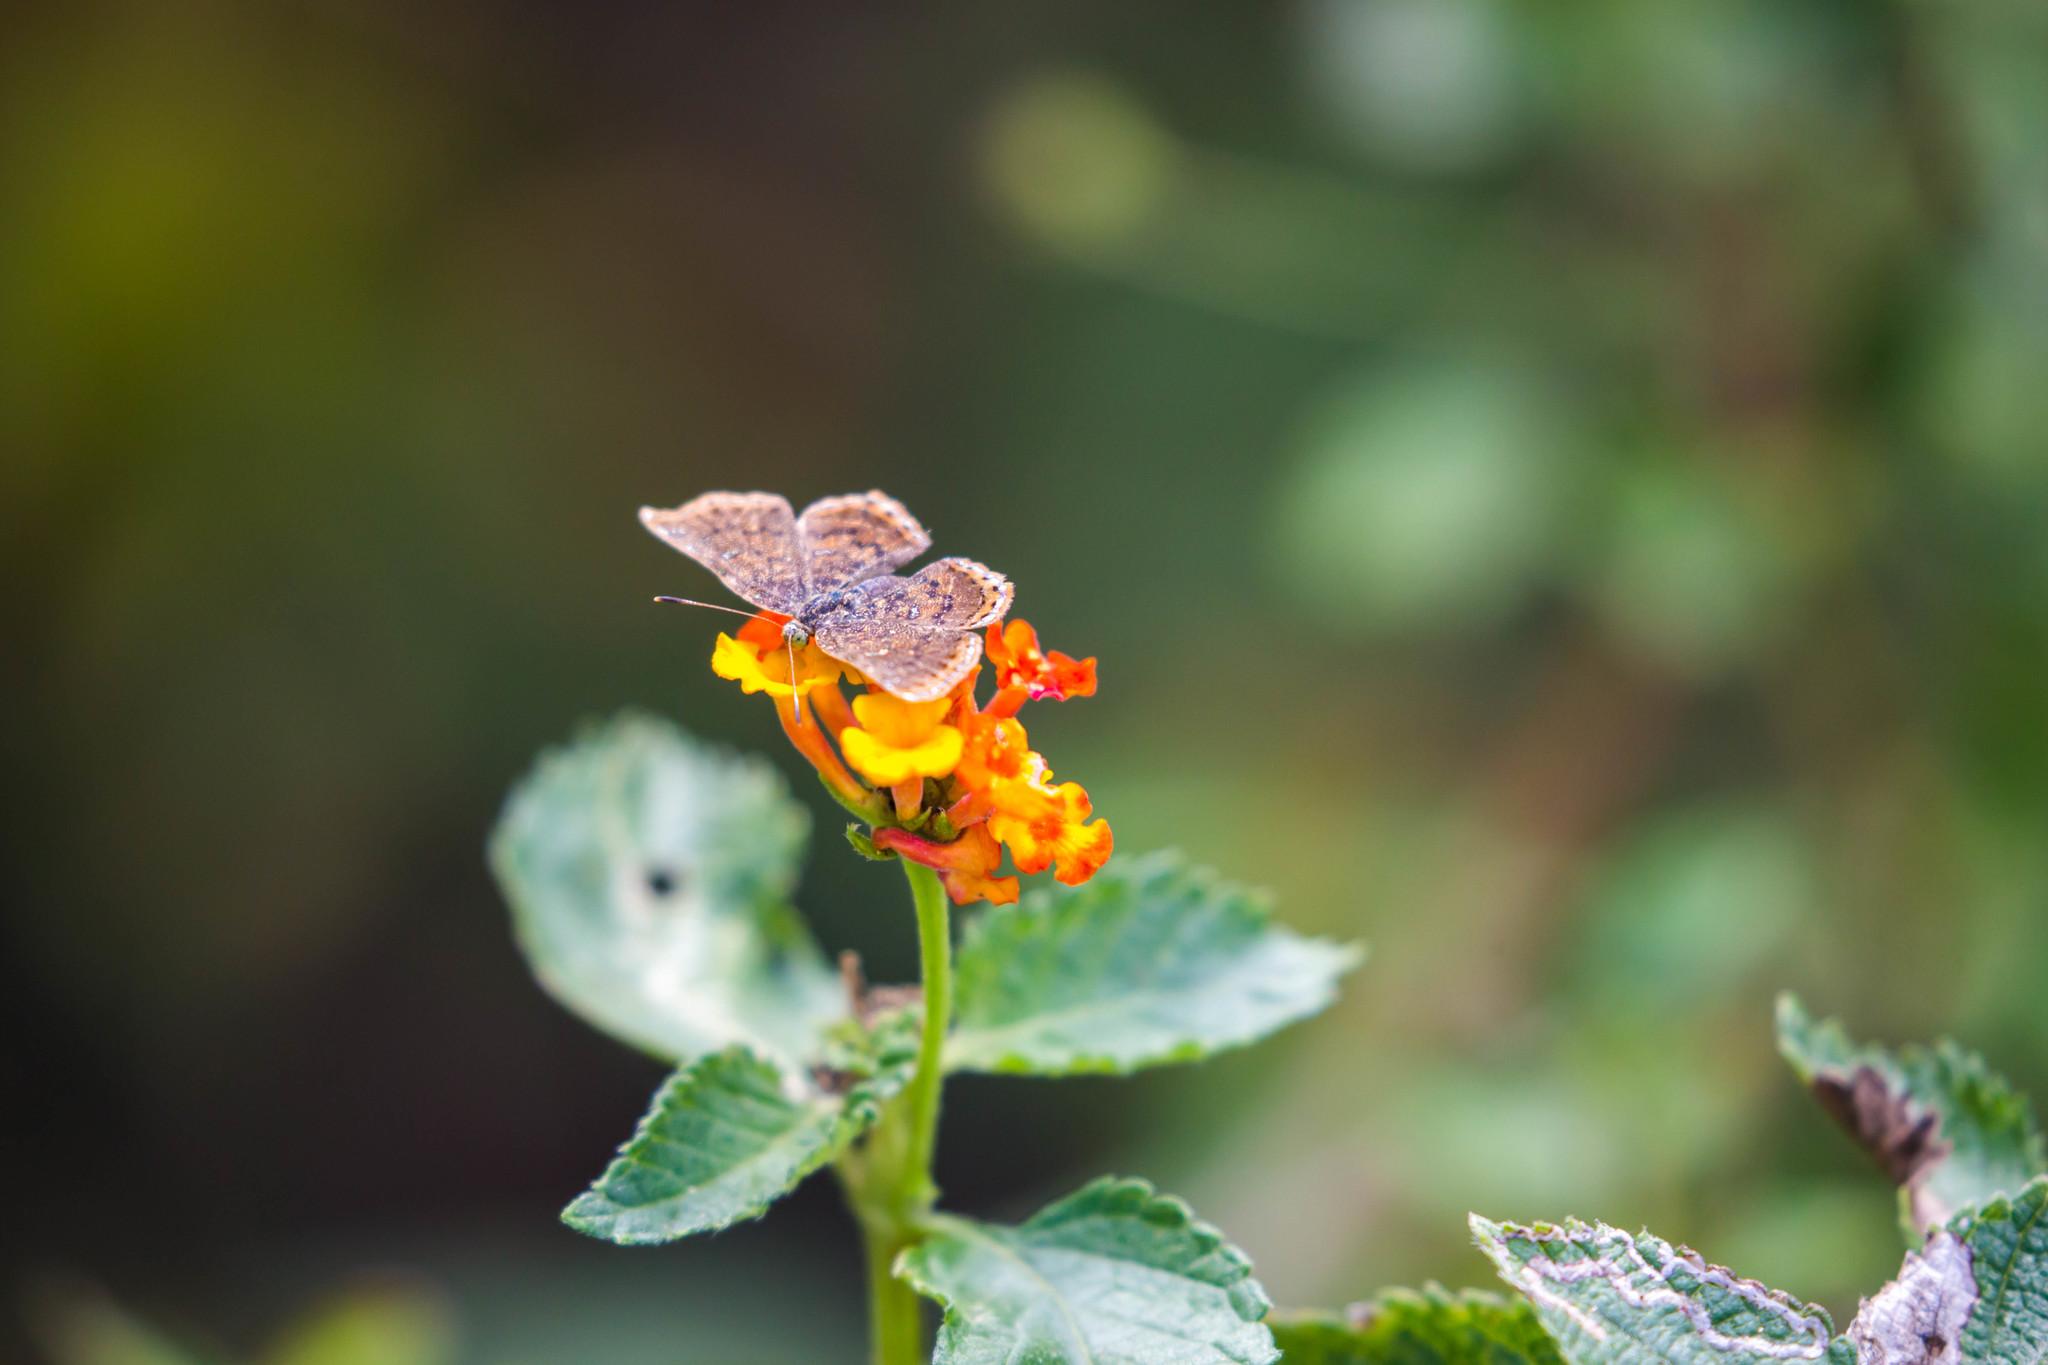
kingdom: Animalia
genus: Caria
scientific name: Caria ino
